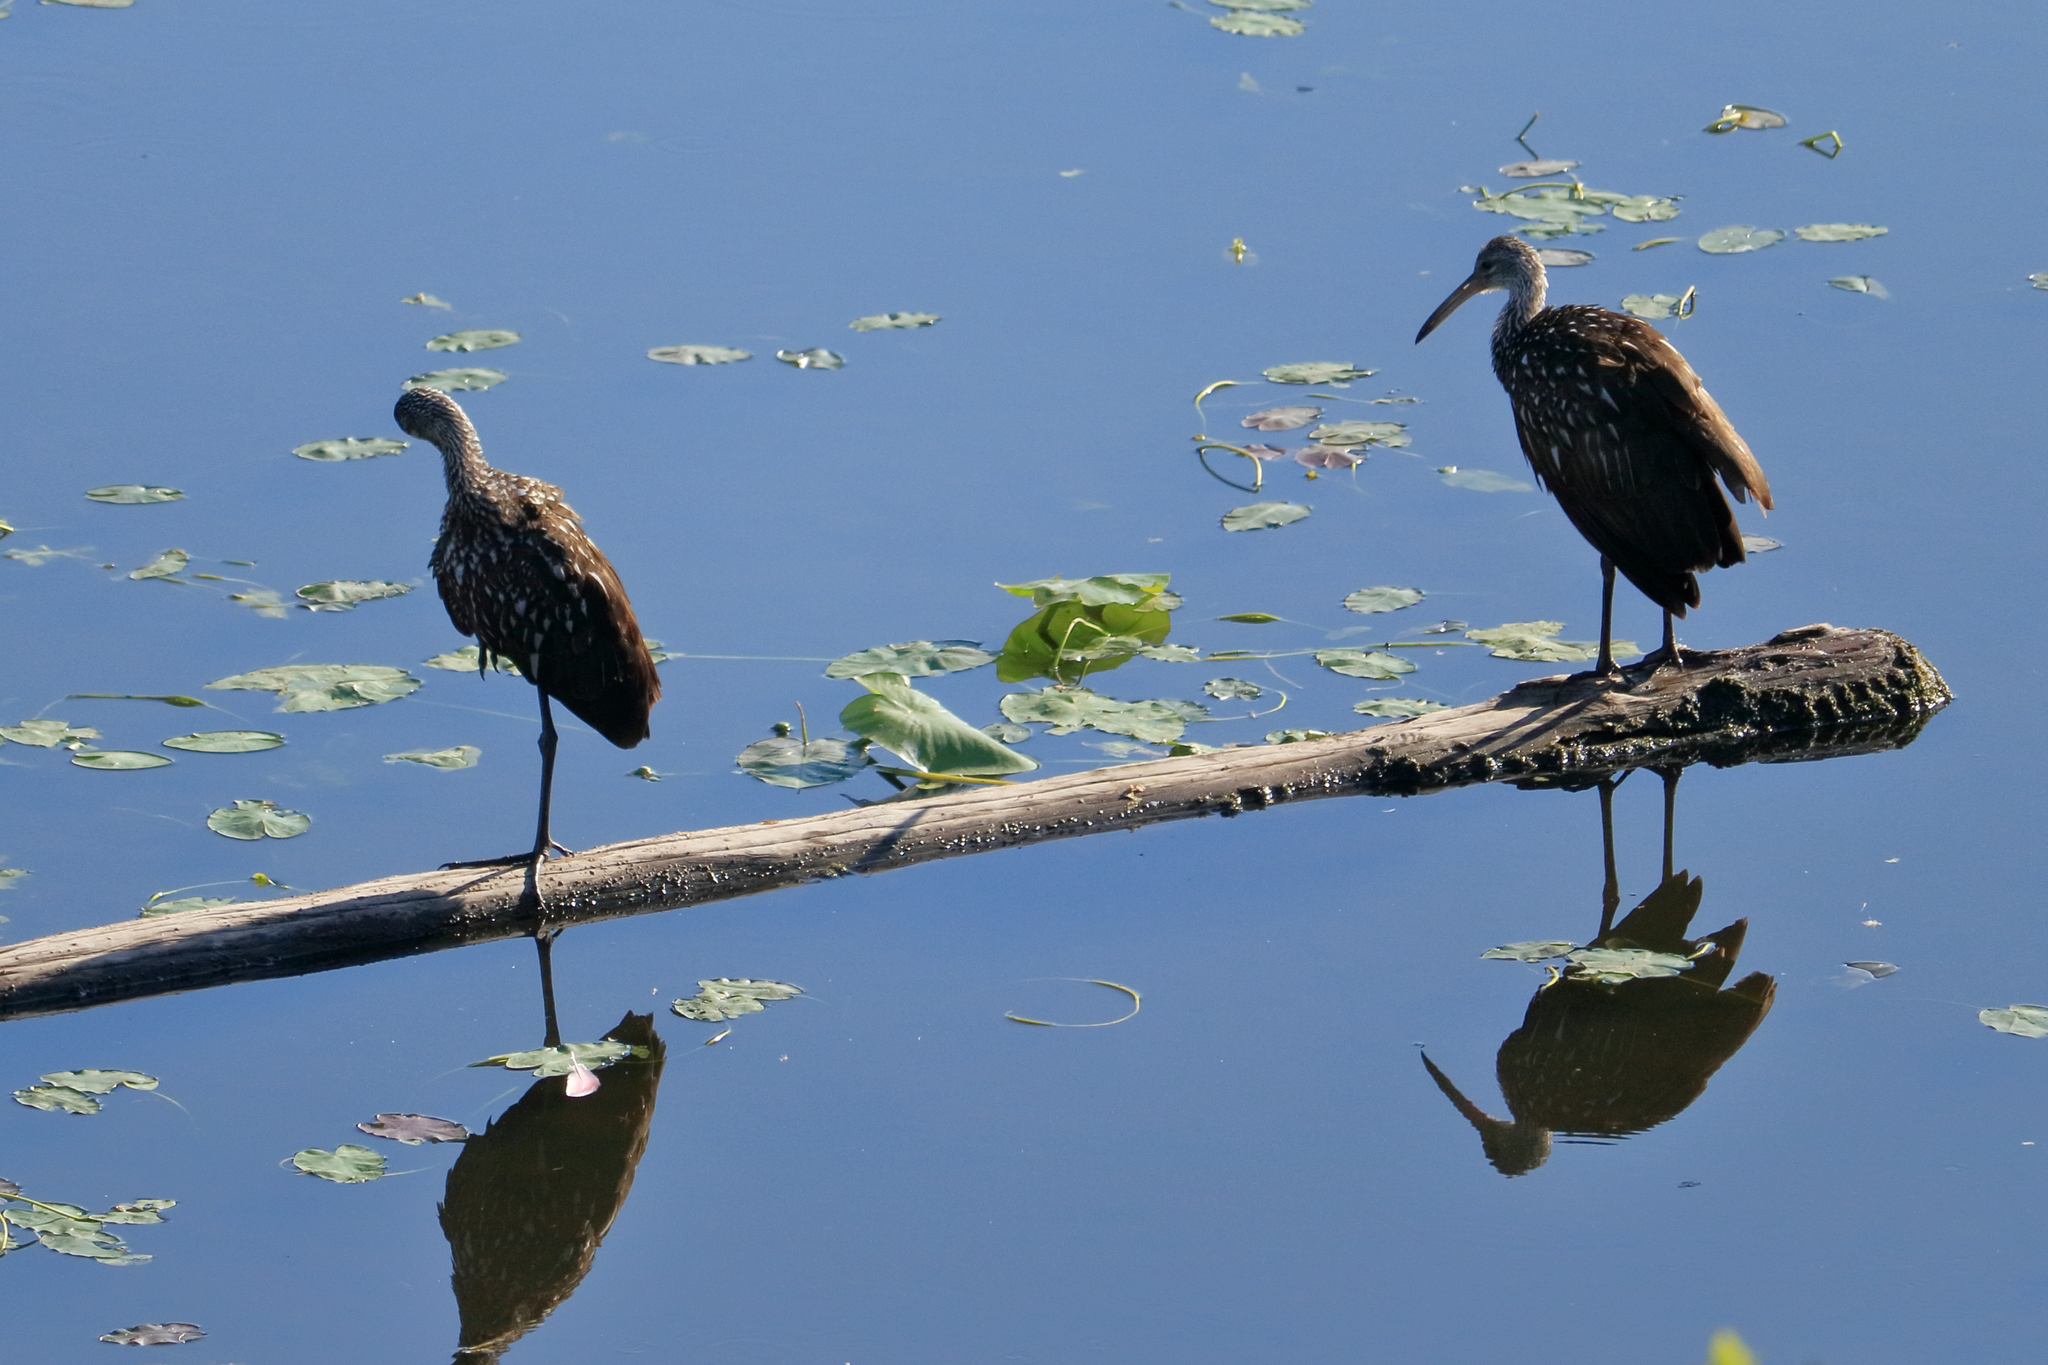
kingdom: Animalia
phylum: Chordata
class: Aves
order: Gruiformes
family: Aramidae
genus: Aramus
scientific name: Aramus guarauna
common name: Limpkin
